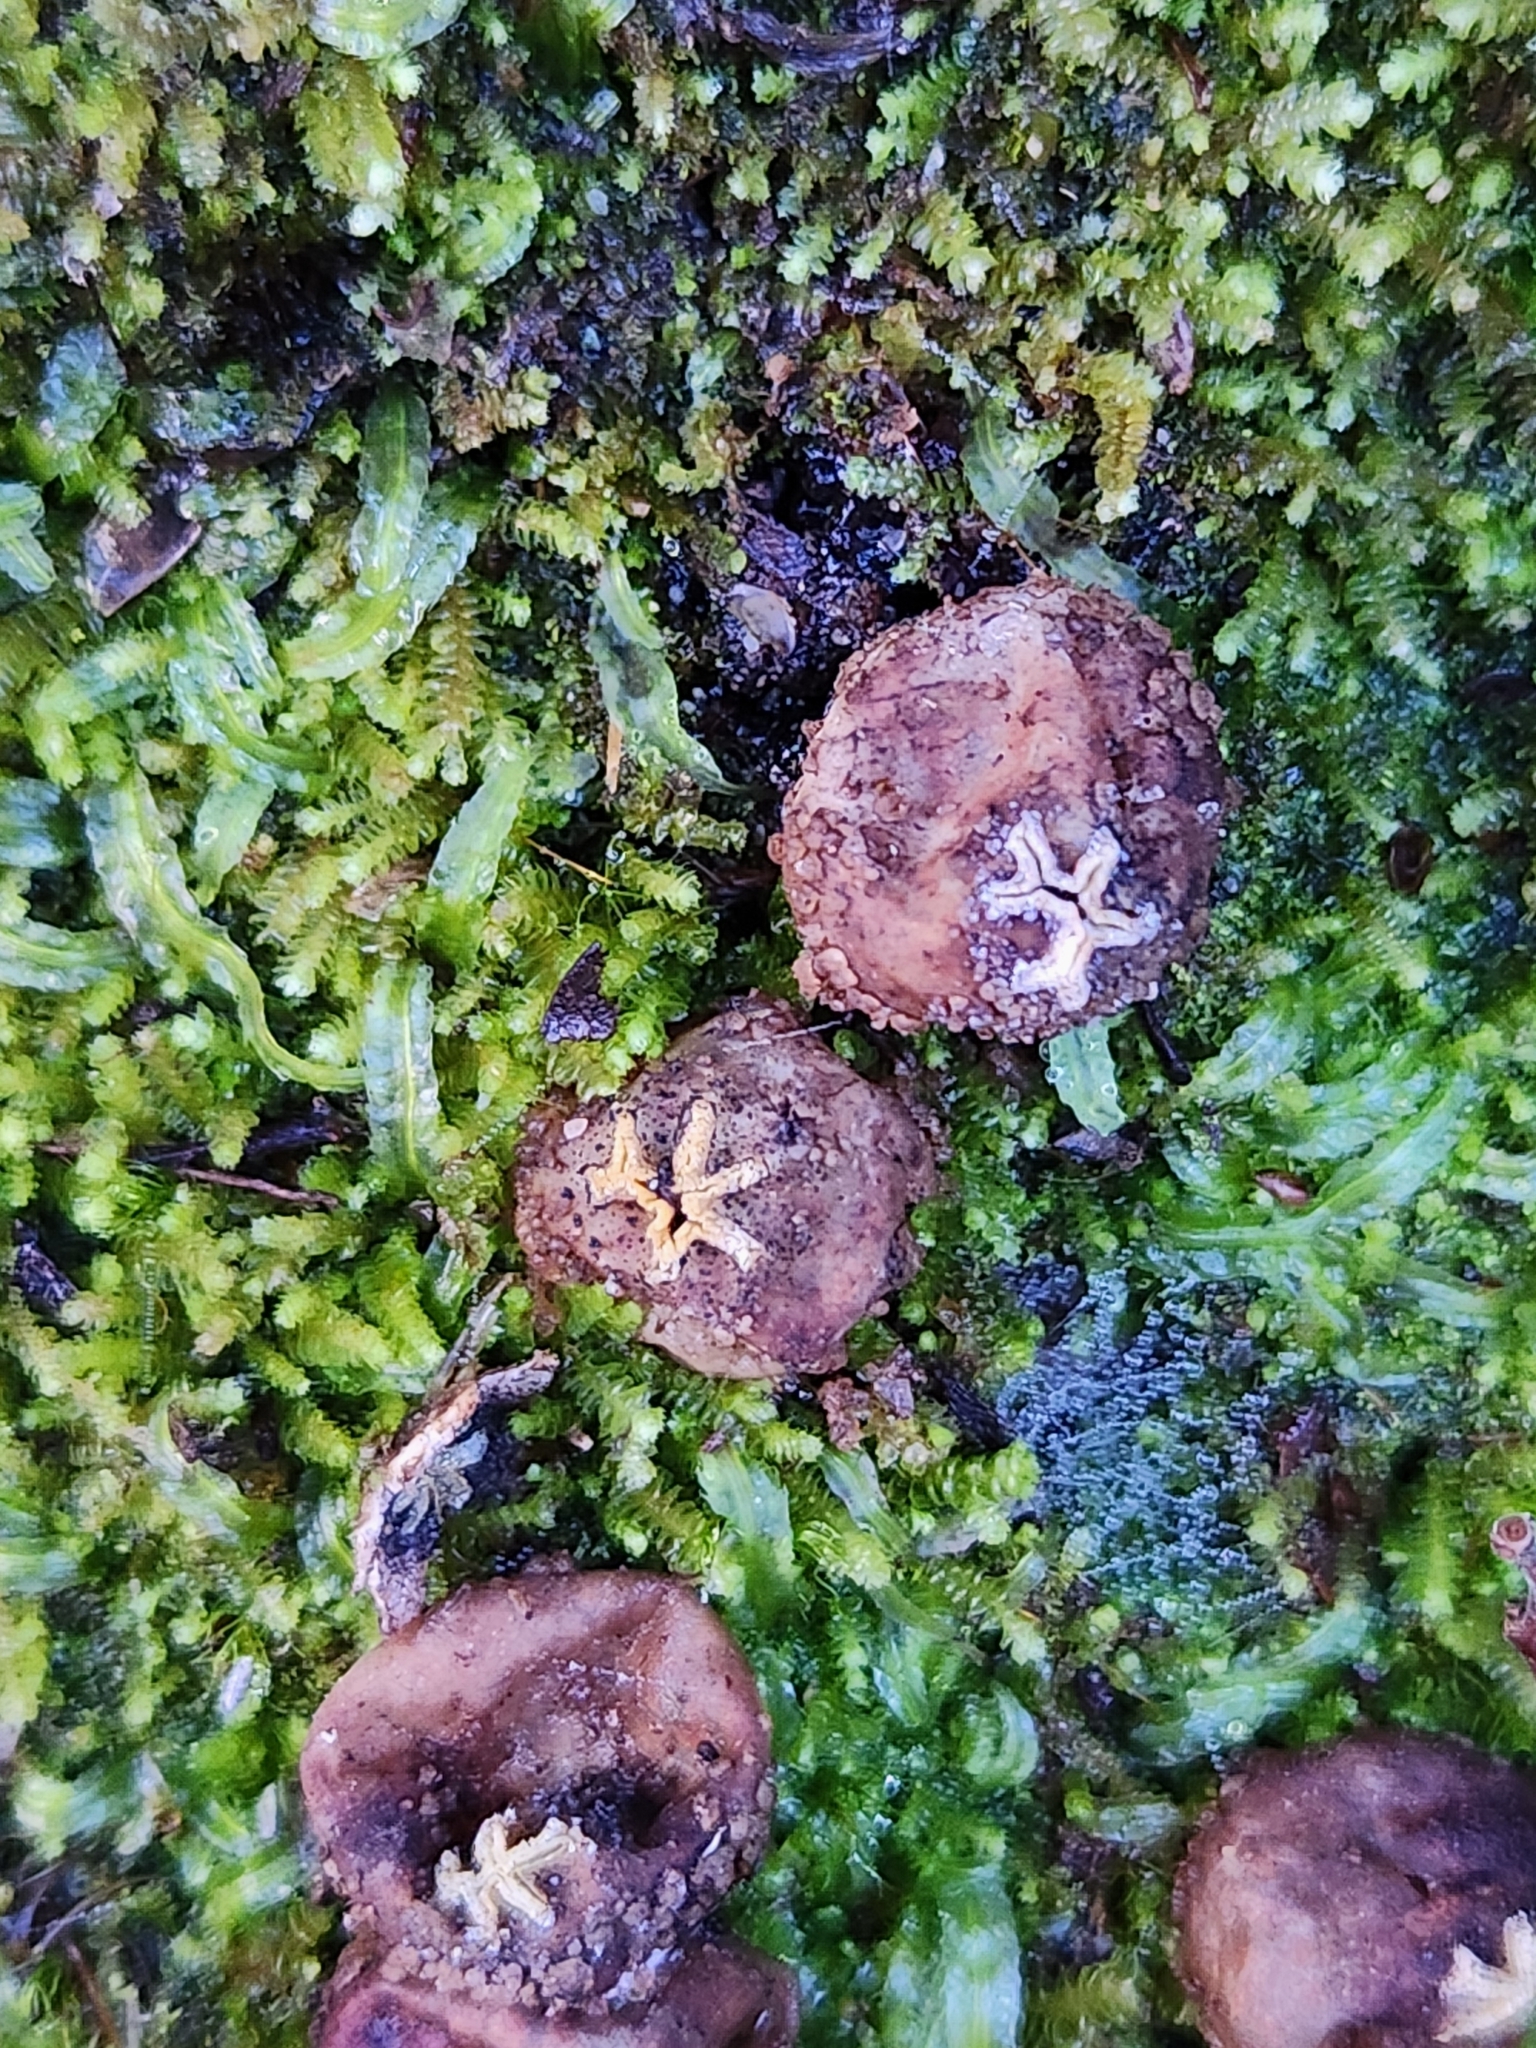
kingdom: Fungi
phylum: Basidiomycota
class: Agaricomycetes
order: Boletales
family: Calostomataceae
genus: Calostoma
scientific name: Calostoma rodwayi
